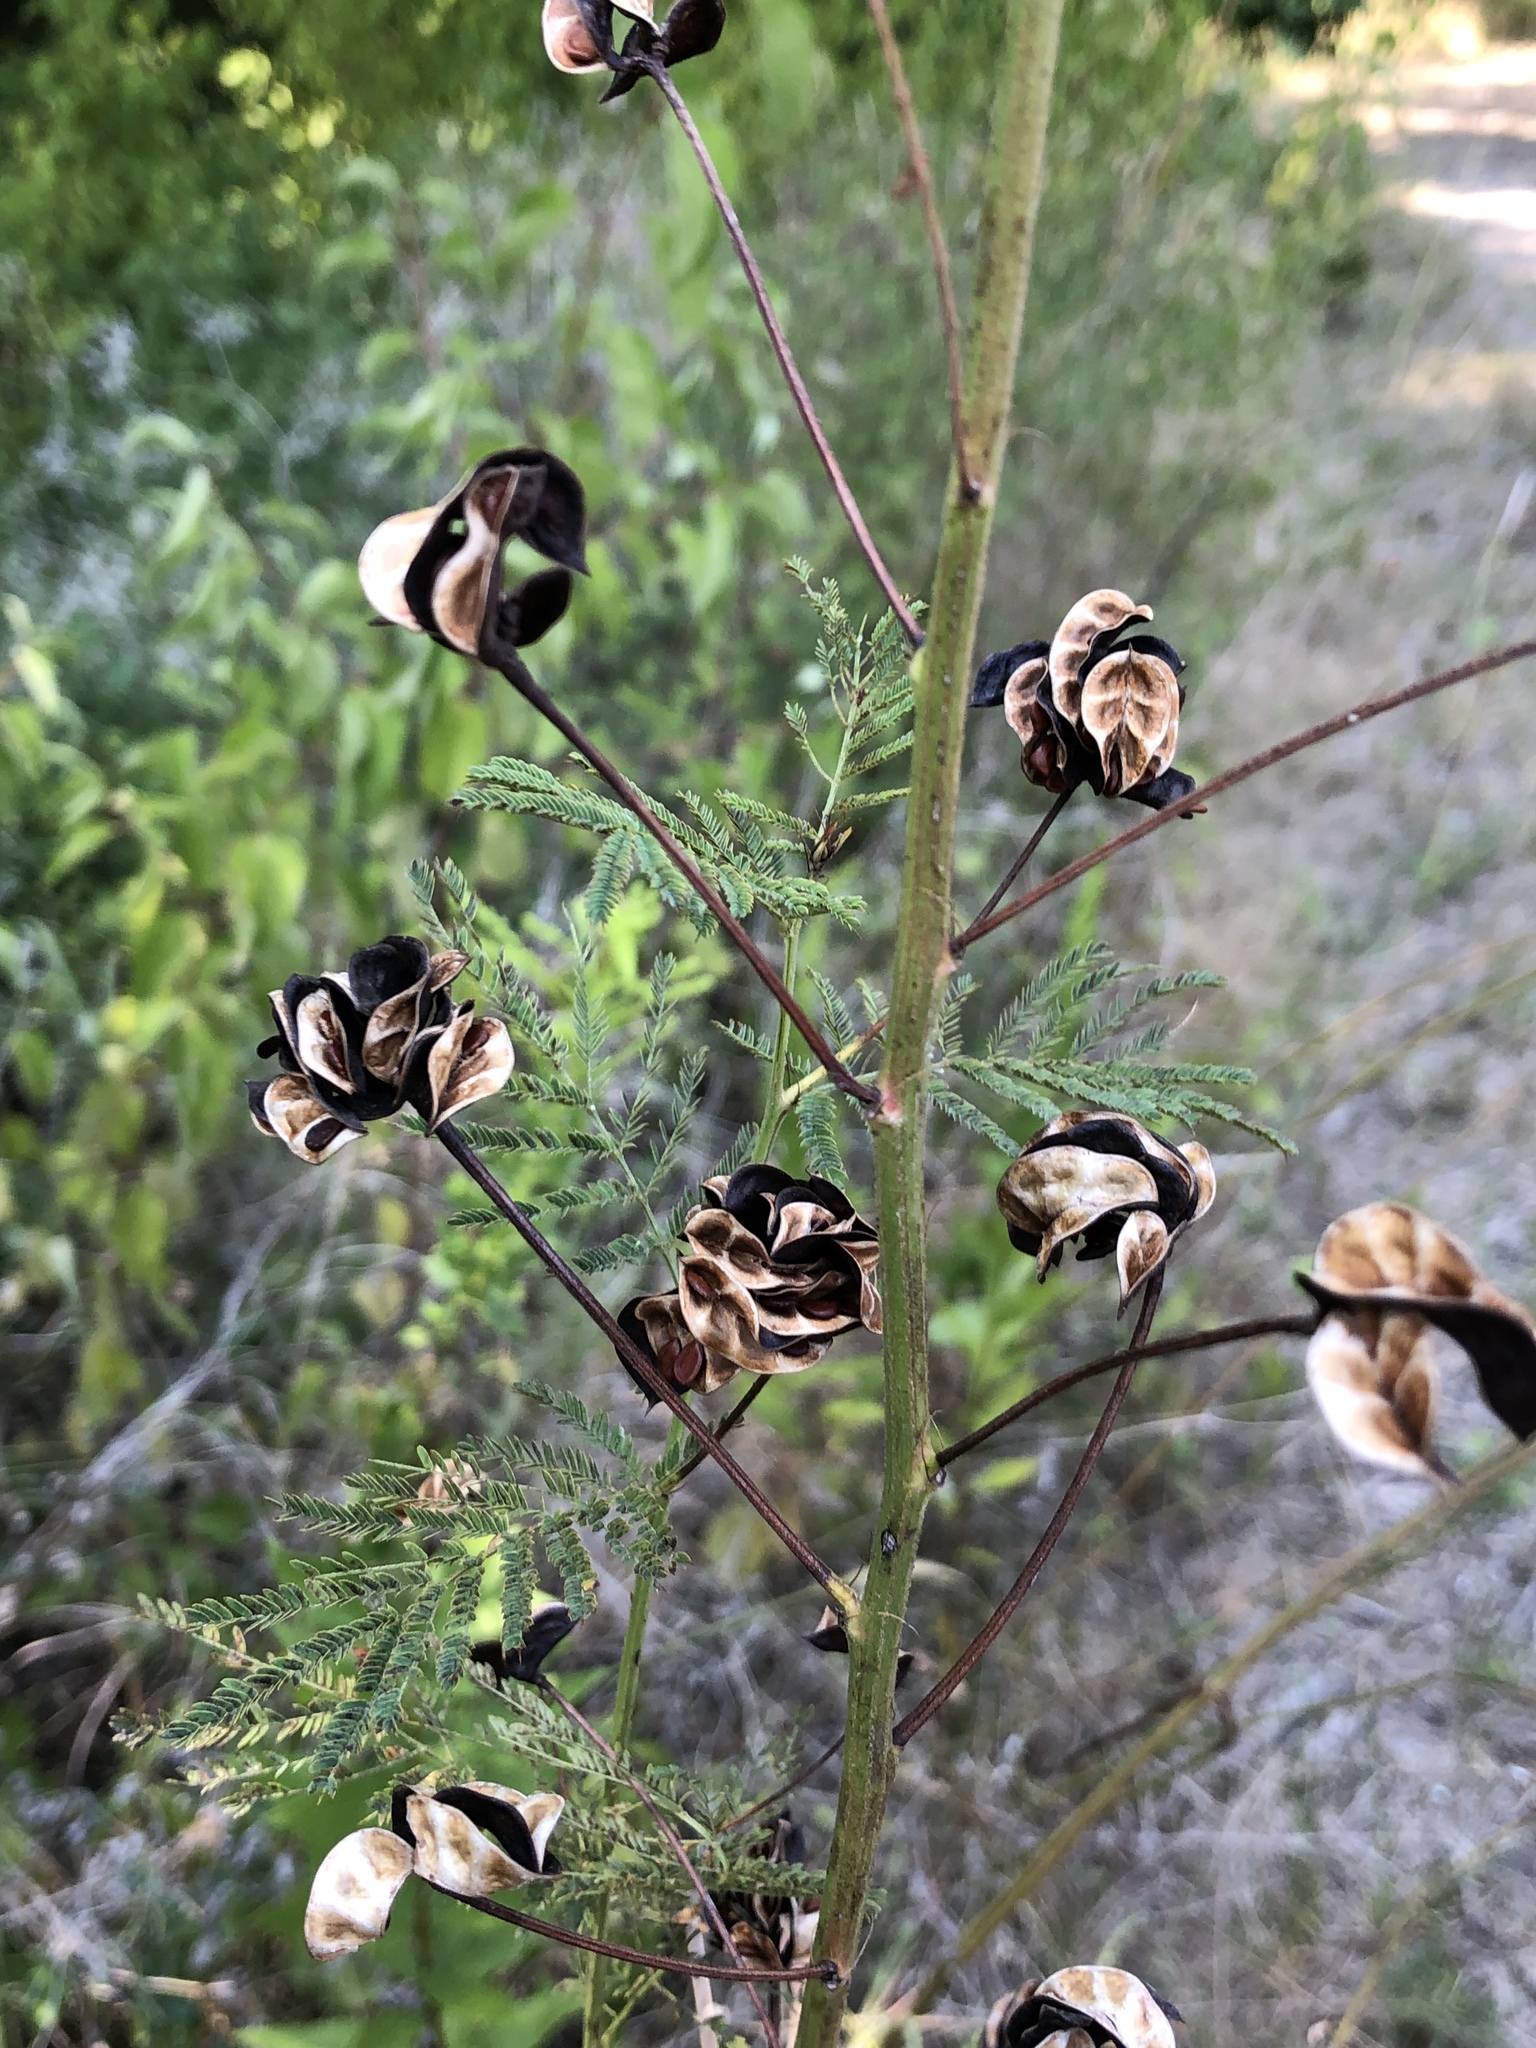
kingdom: Plantae
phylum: Tracheophyta
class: Magnoliopsida
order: Fabales
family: Fabaceae
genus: Desmanthus
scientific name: Desmanthus illinoensis
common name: Illinois bundle-flower
